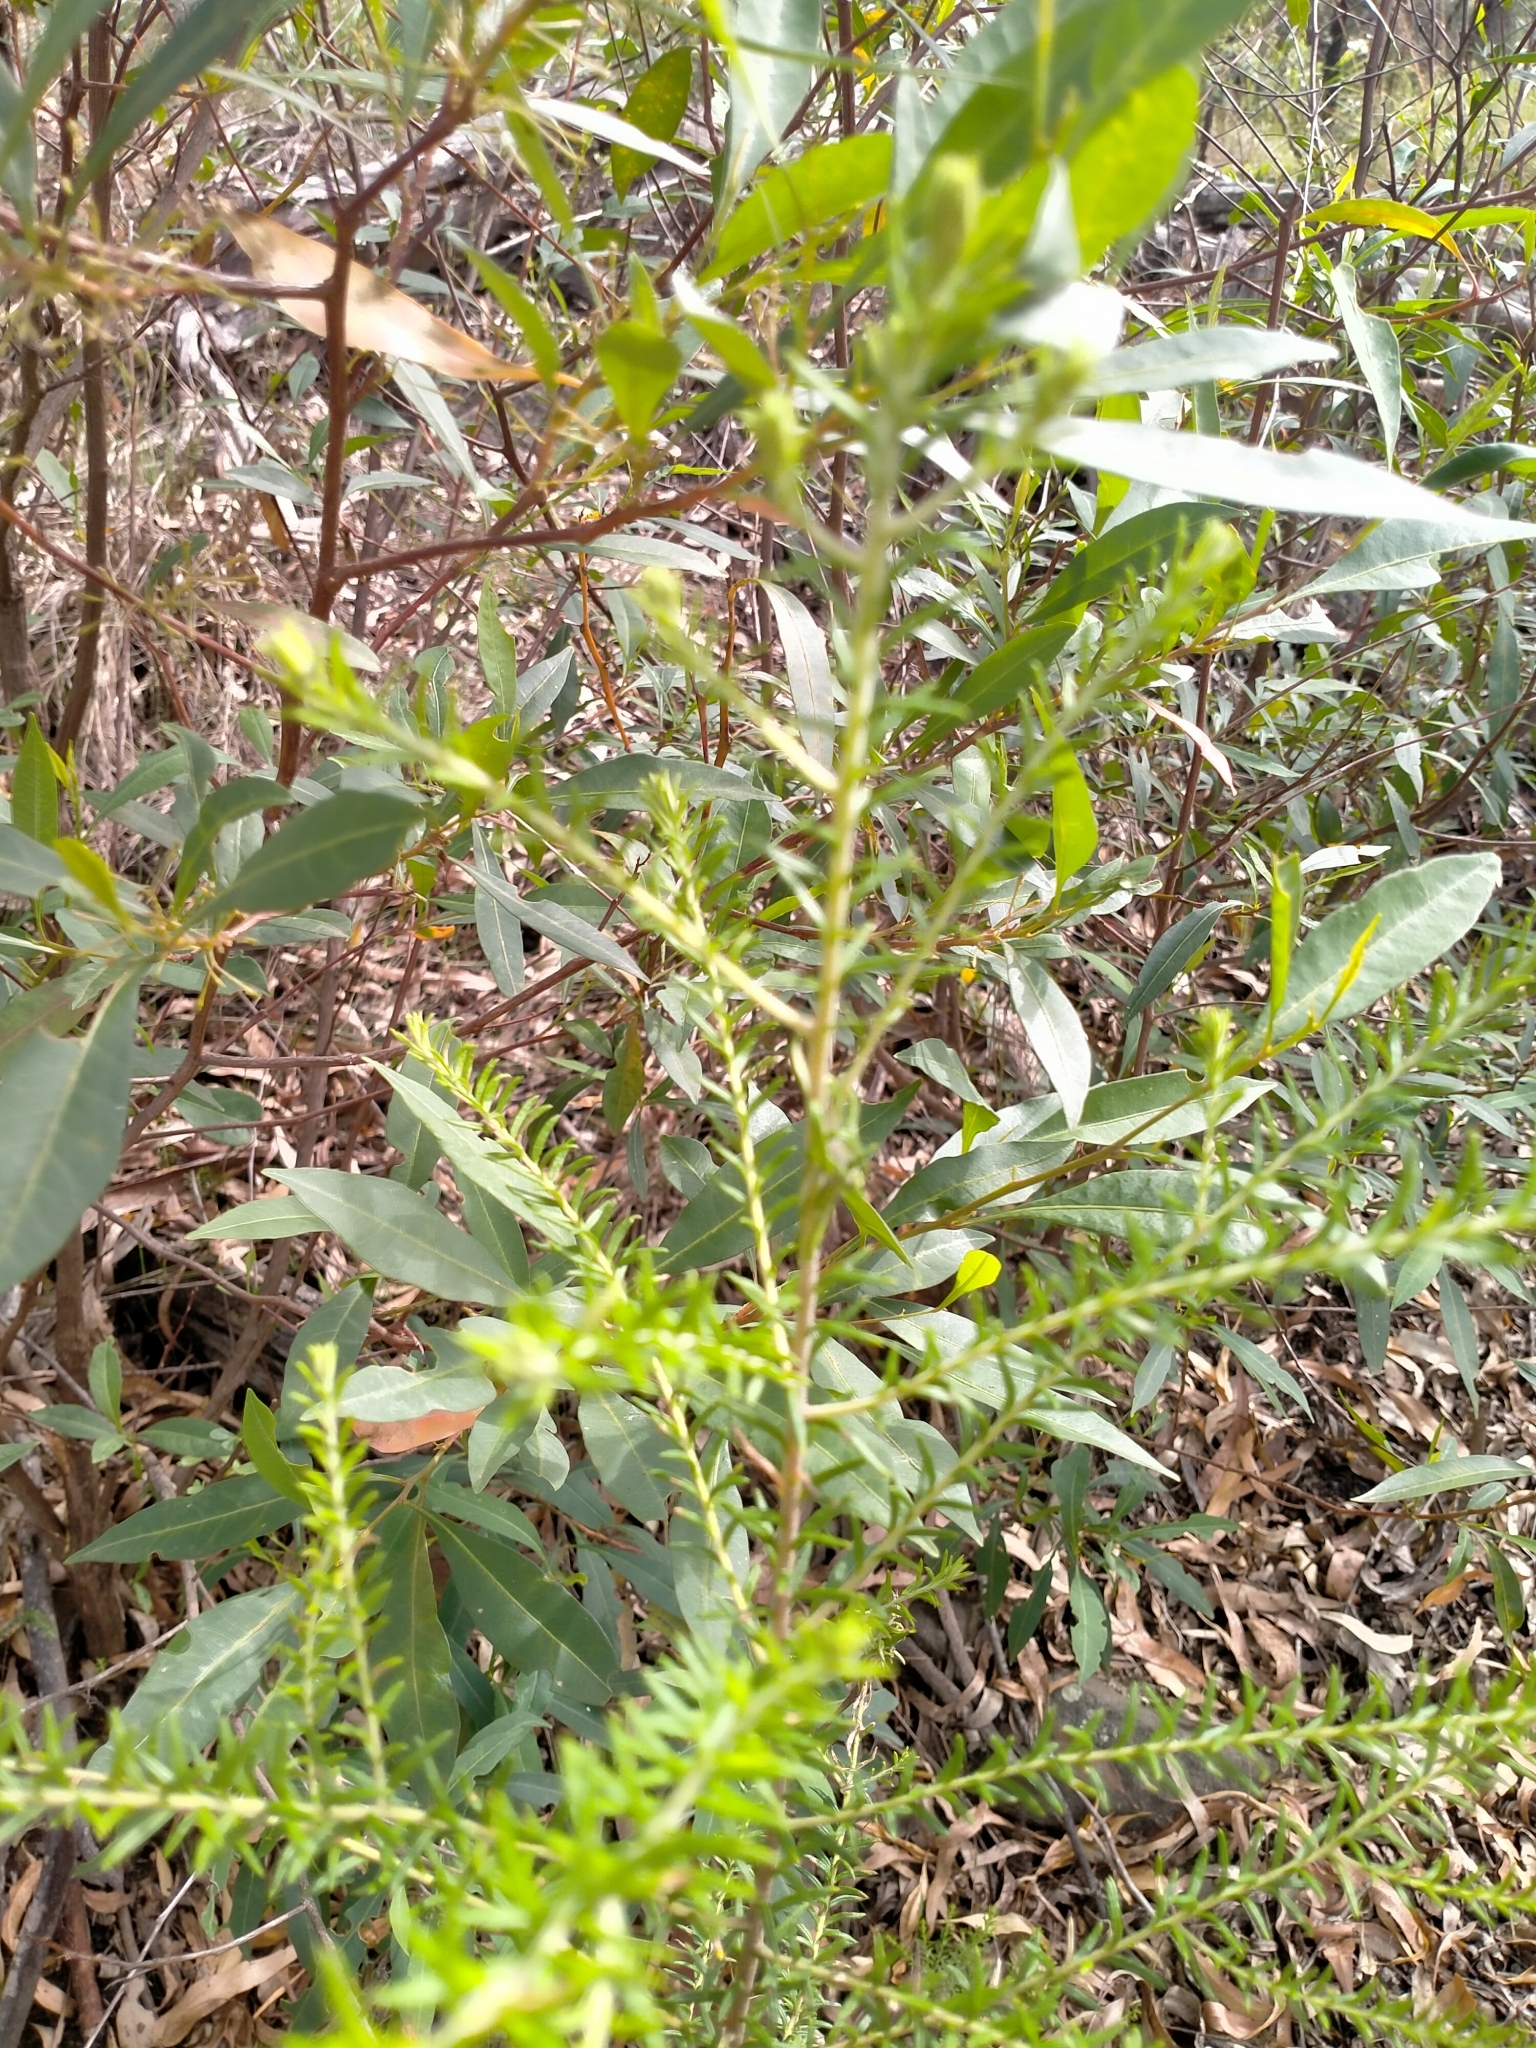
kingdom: Plantae
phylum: Tracheophyta
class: Magnoliopsida
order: Asterales
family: Asteraceae
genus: Ozothamnus
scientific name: Ozothamnus diosmifolius
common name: White-dogwood
